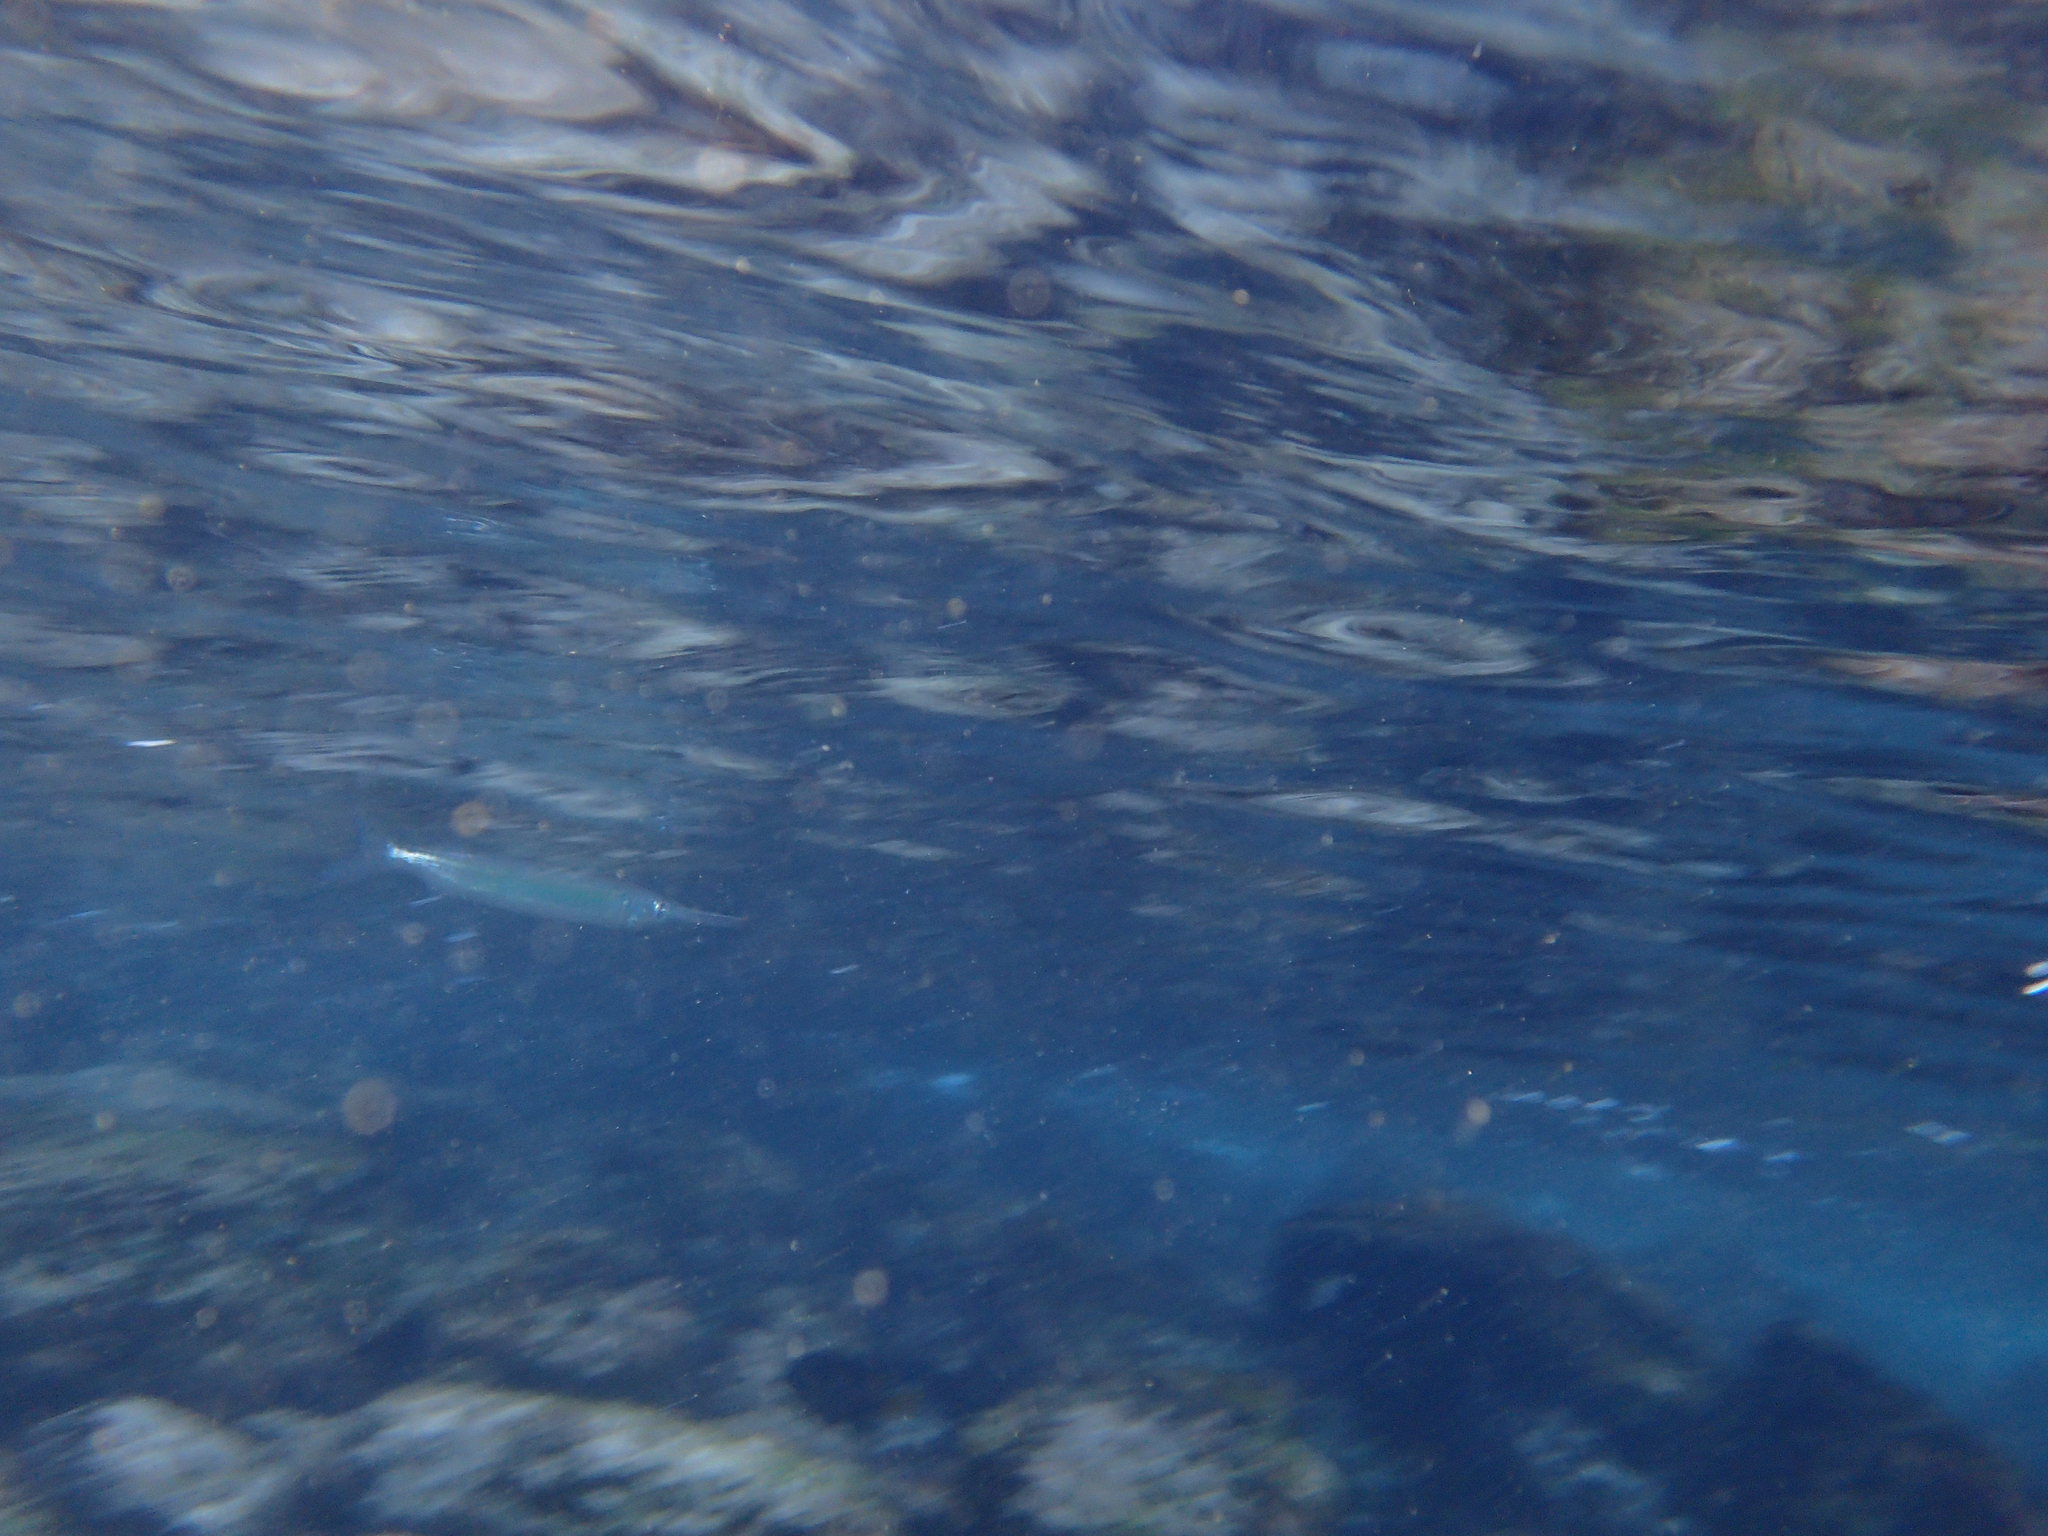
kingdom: Animalia
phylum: Chordata
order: Beloniformes
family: Hemiramphidae
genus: Hemiramphus
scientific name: Hemiramphus saltator
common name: Longfin halfbeak
